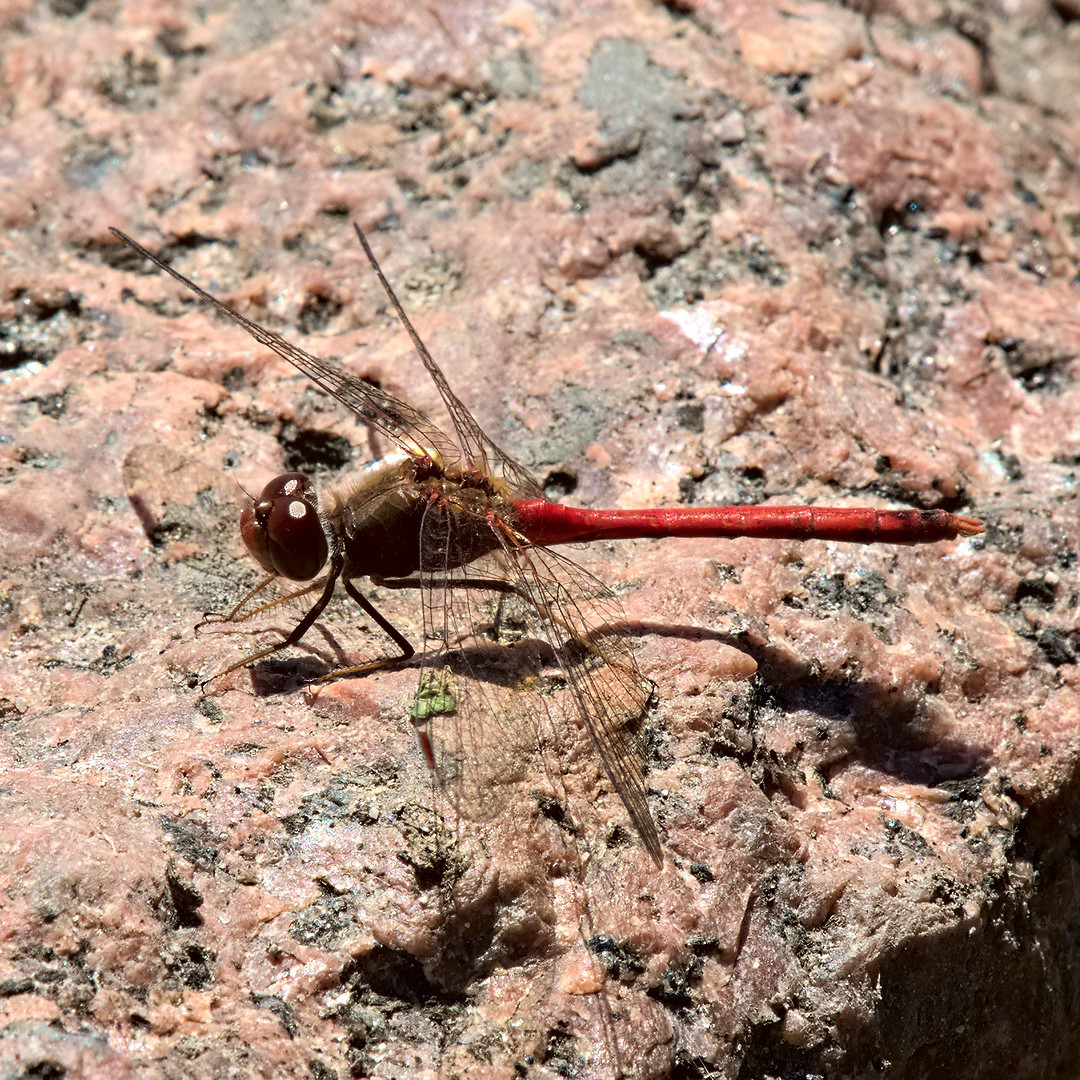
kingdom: Animalia
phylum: Arthropoda
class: Insecta
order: Odonata
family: Libellulidae
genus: Sympetrum
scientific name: Sympetrum vicinum
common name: Autumn meadowhawk
